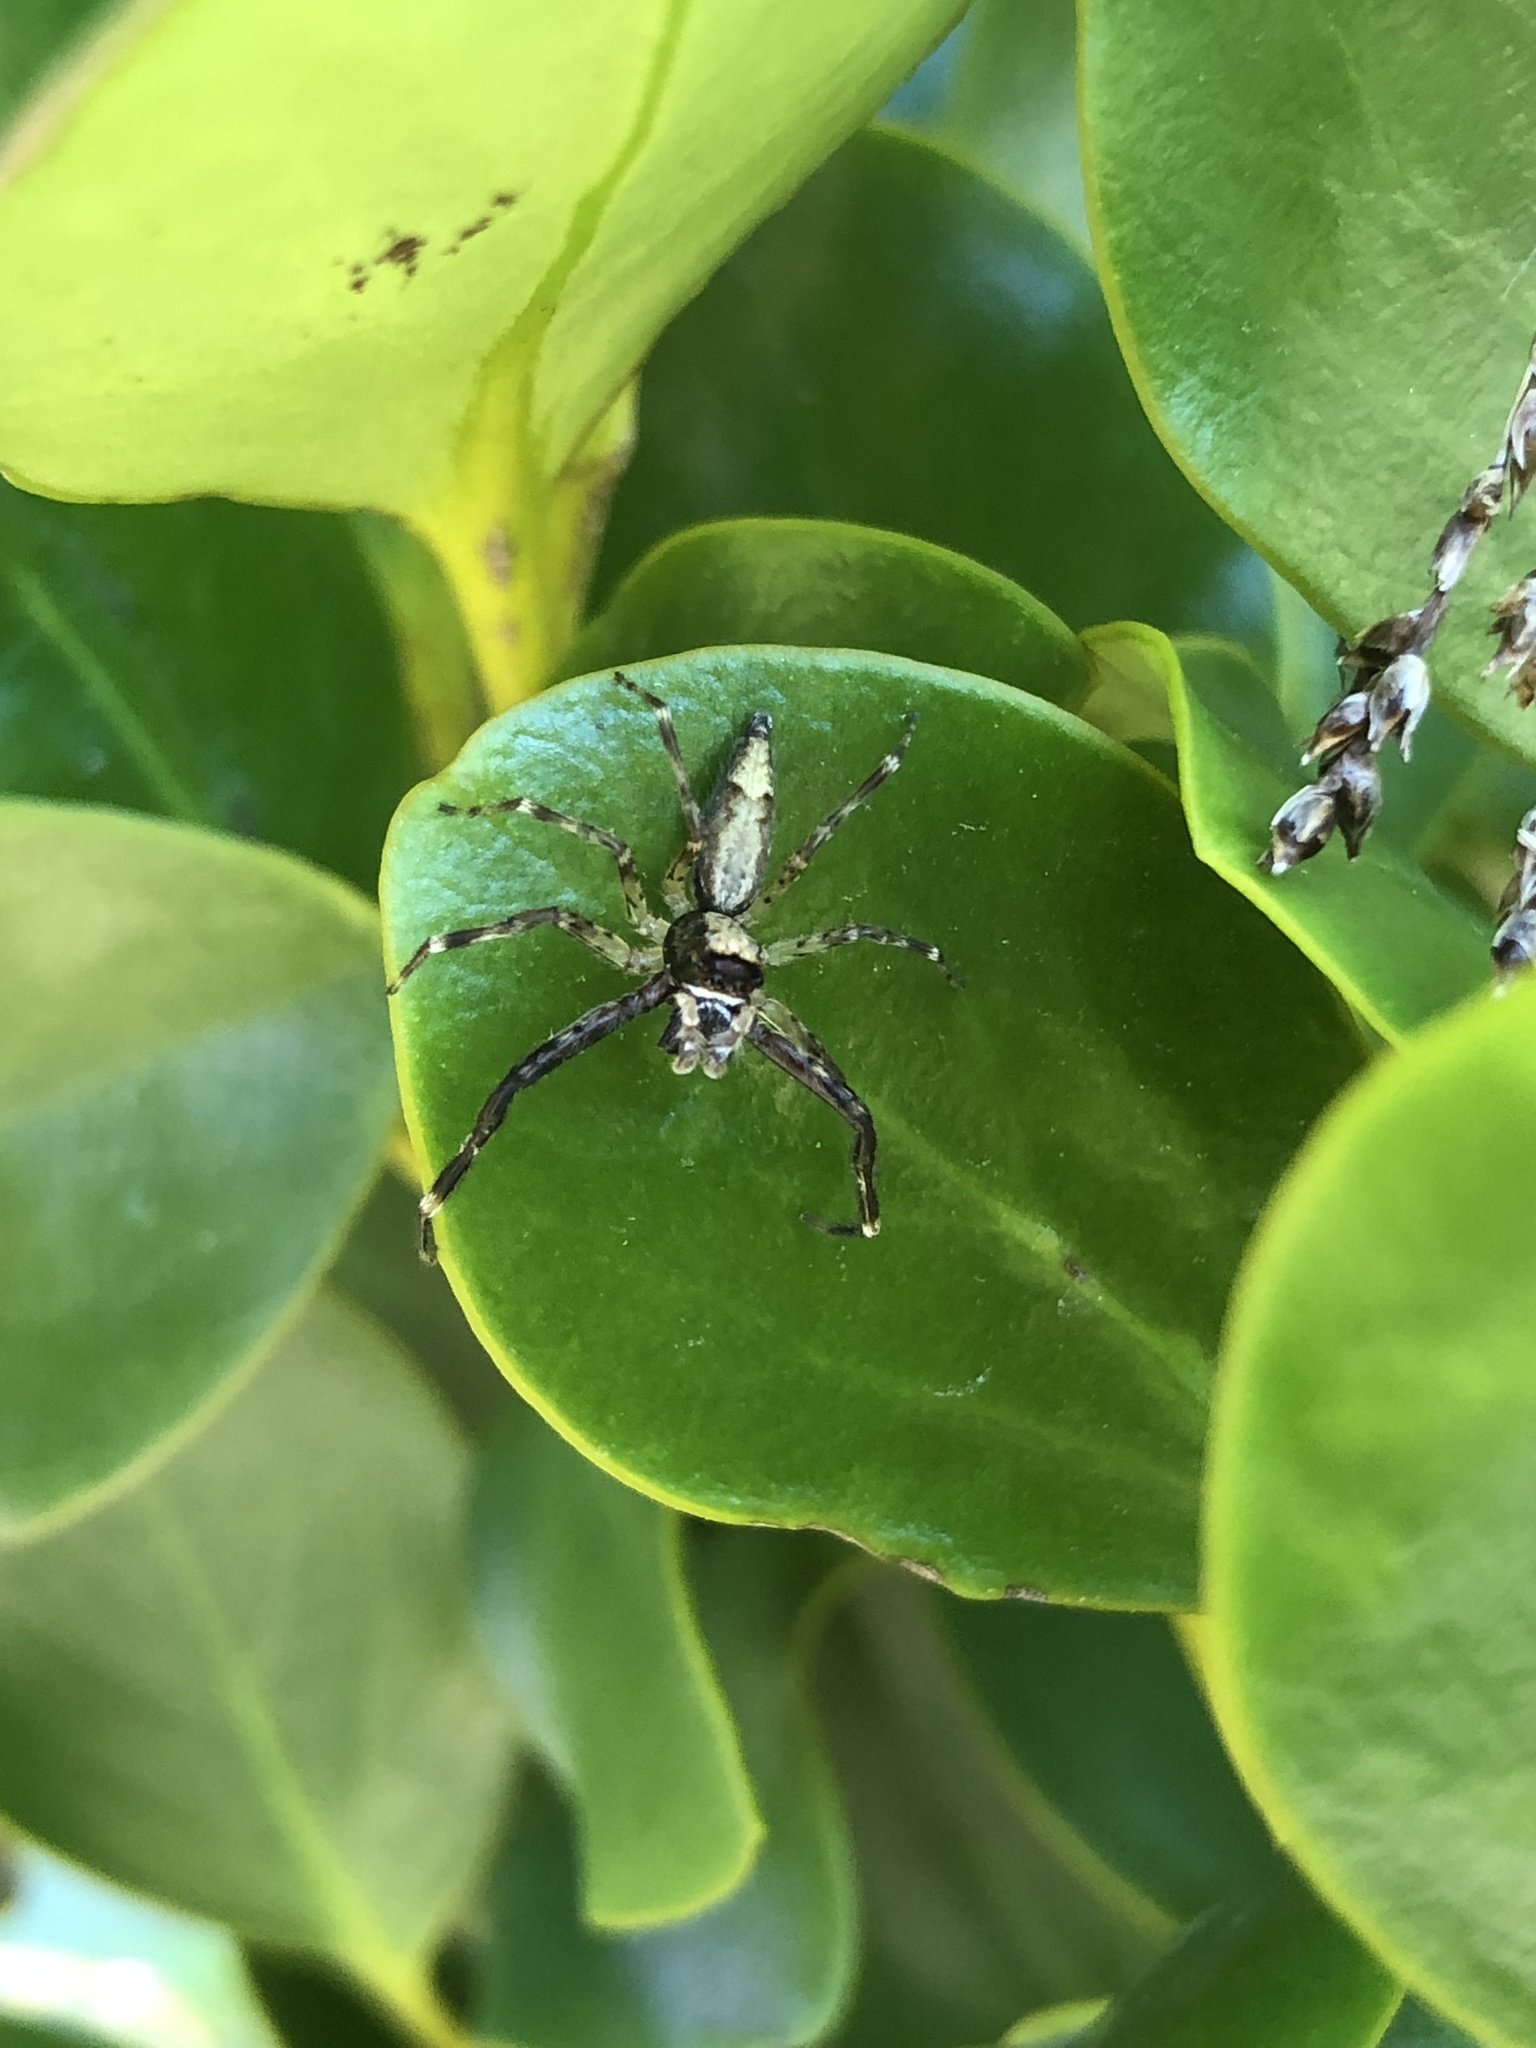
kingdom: Animalia
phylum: Arthropoda
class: Arachnida
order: Araneae
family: Salticidae
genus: Helpis
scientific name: Helpis minitabunda
